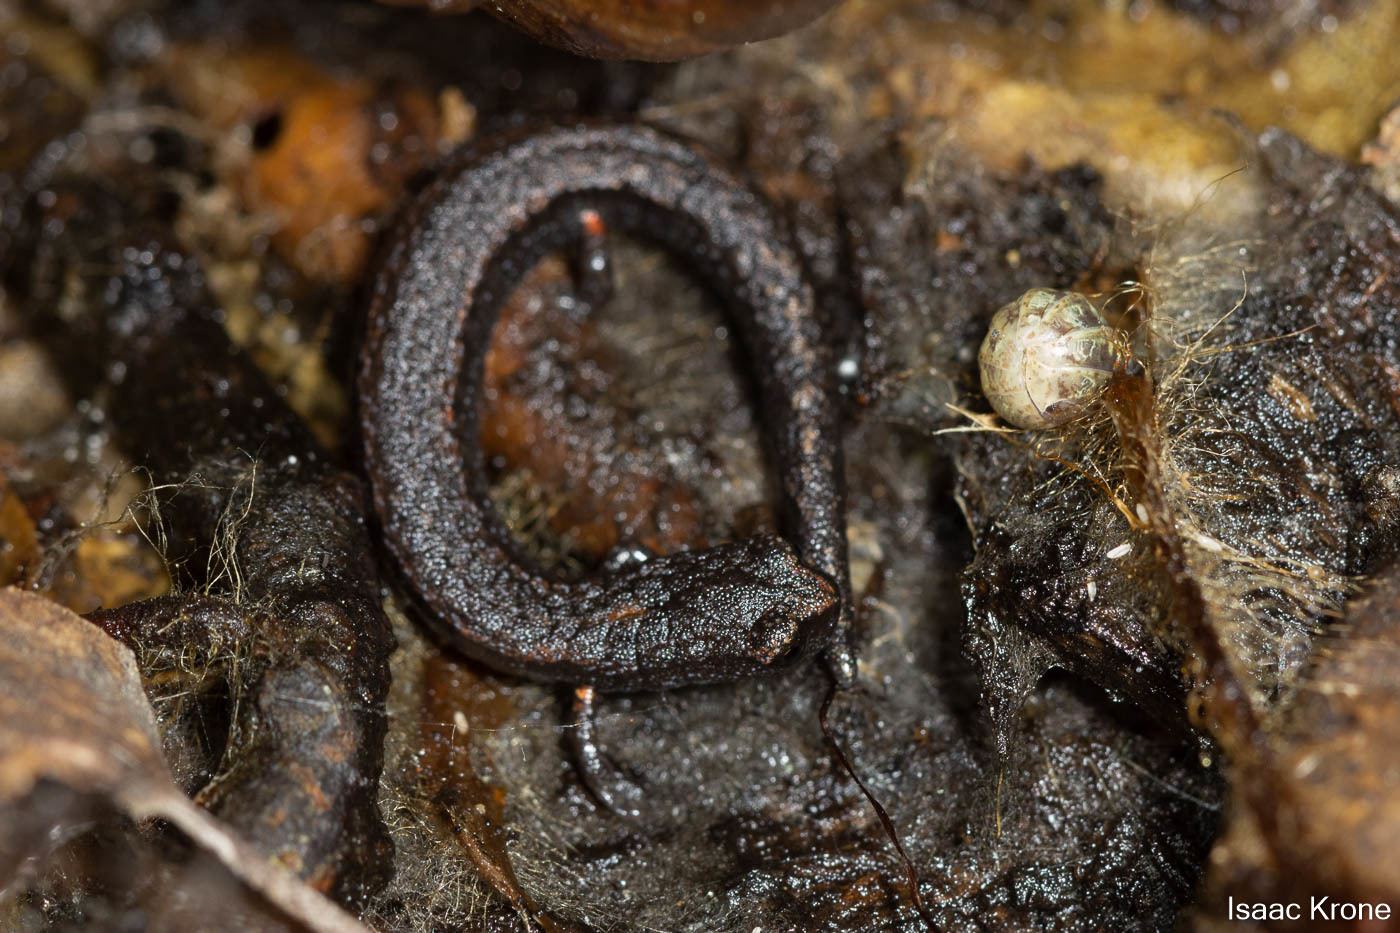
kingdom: Animalia
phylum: Chordata
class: Amphibia
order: Caudata
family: Plethodontidae
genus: Batrachoseps
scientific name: Batrachoseps attenuatus
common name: California slender salamander
